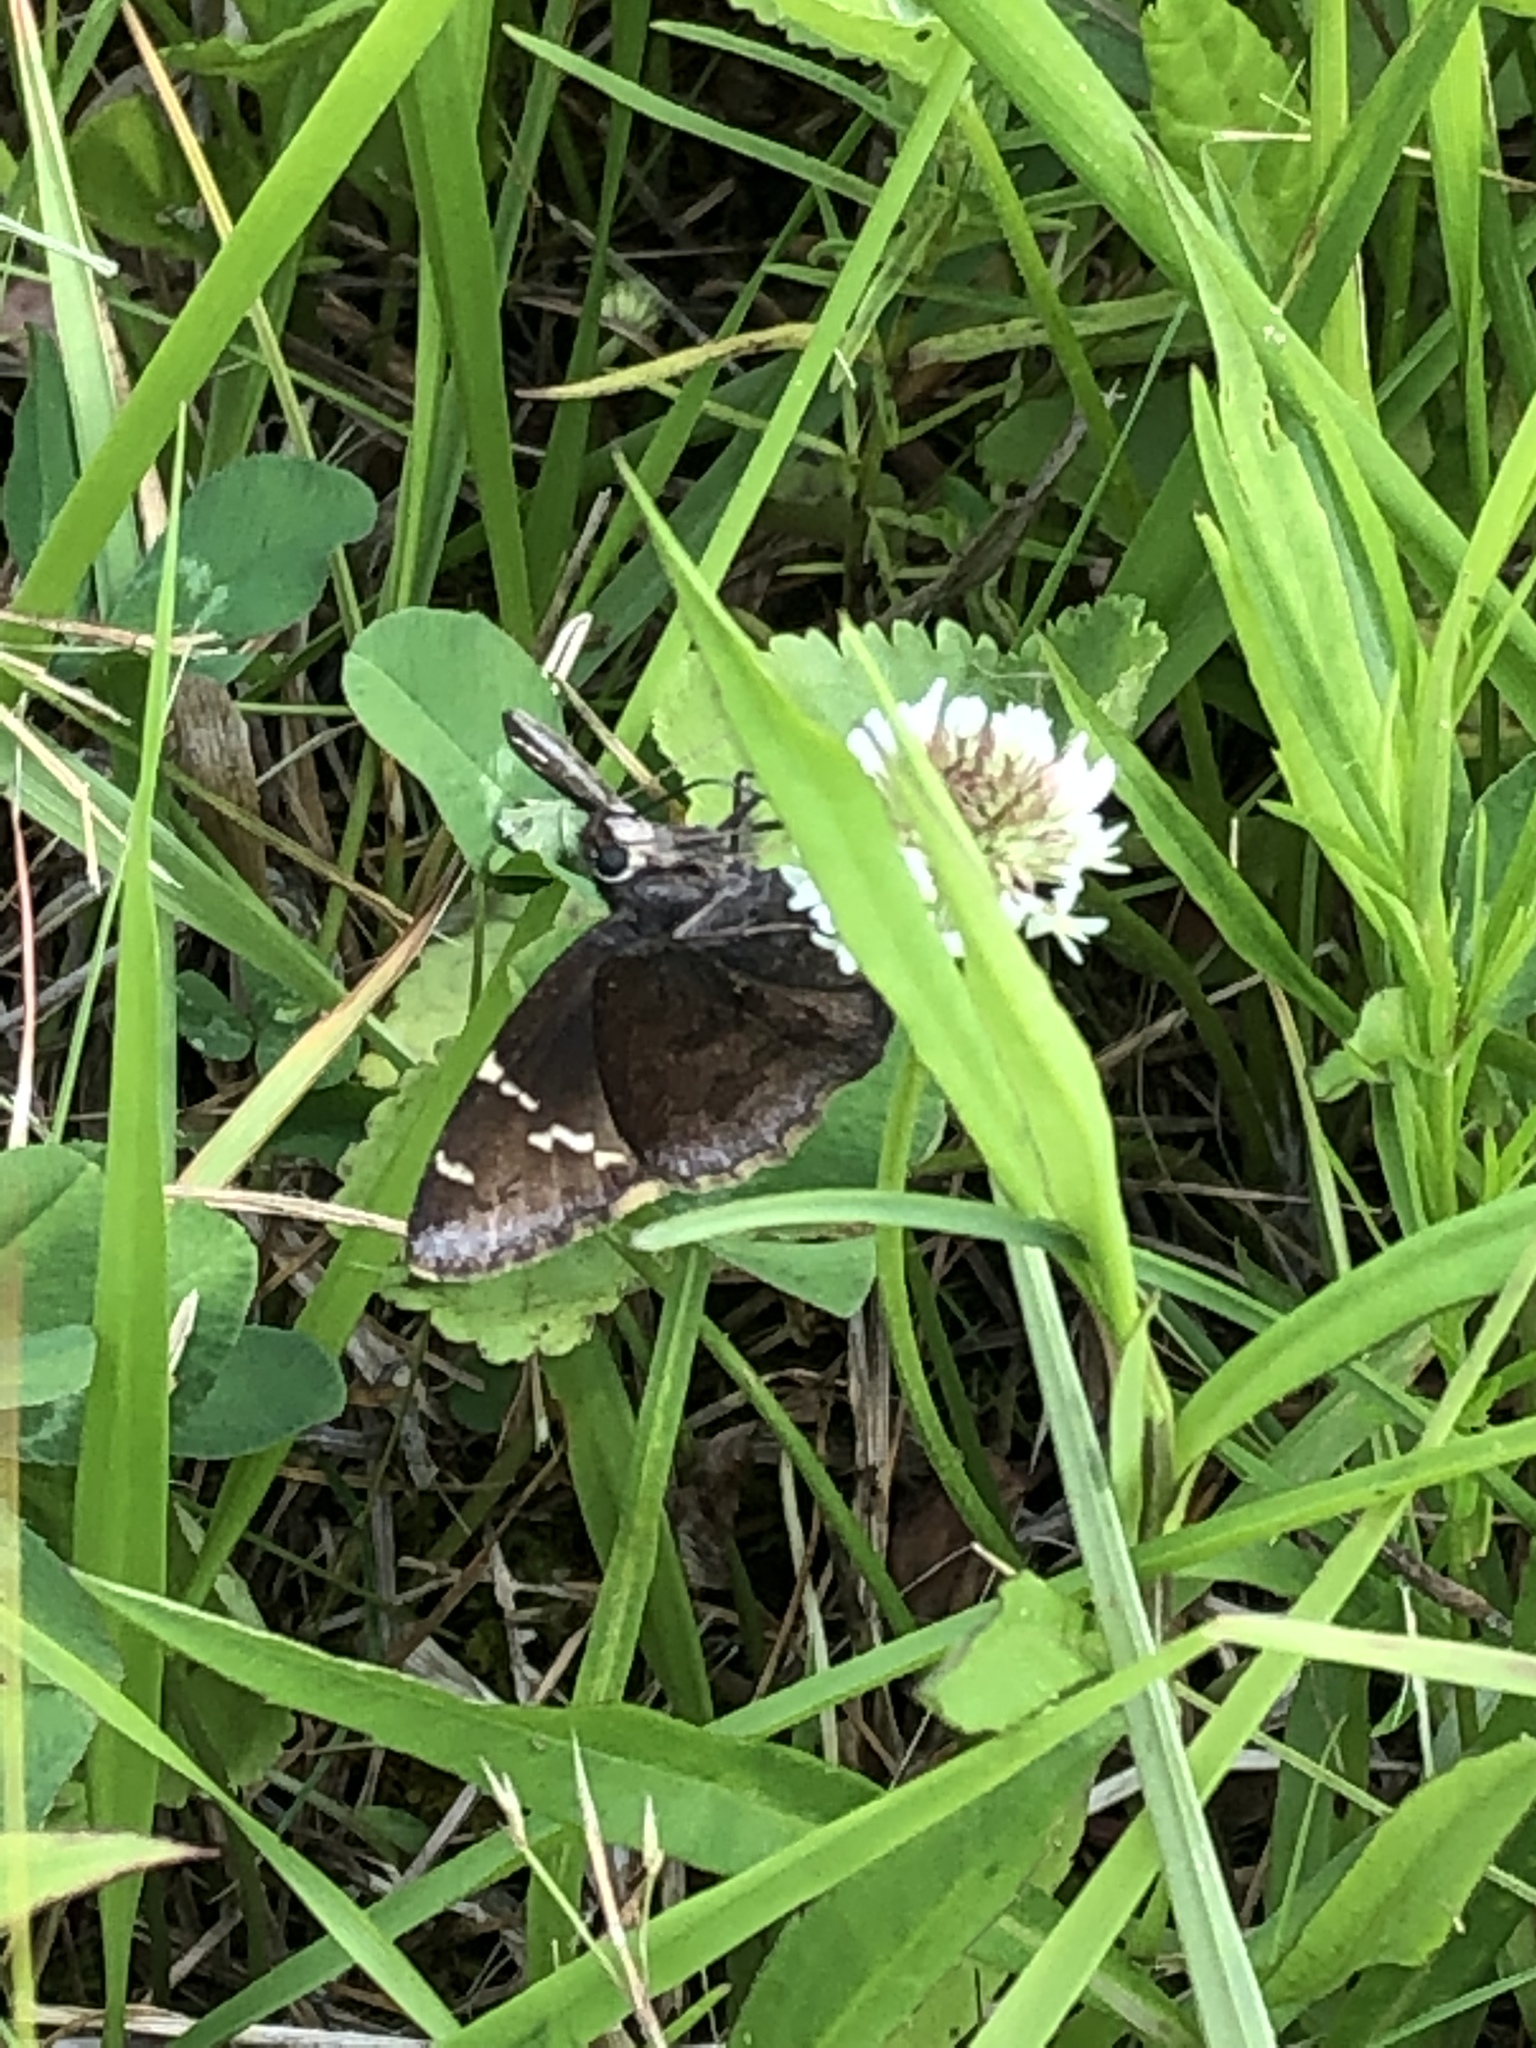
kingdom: Animalia
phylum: Arthropoda
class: Insecta
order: Lepidoptera
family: Hesperiidae
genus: Thorybes
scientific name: Thorybes daunus
